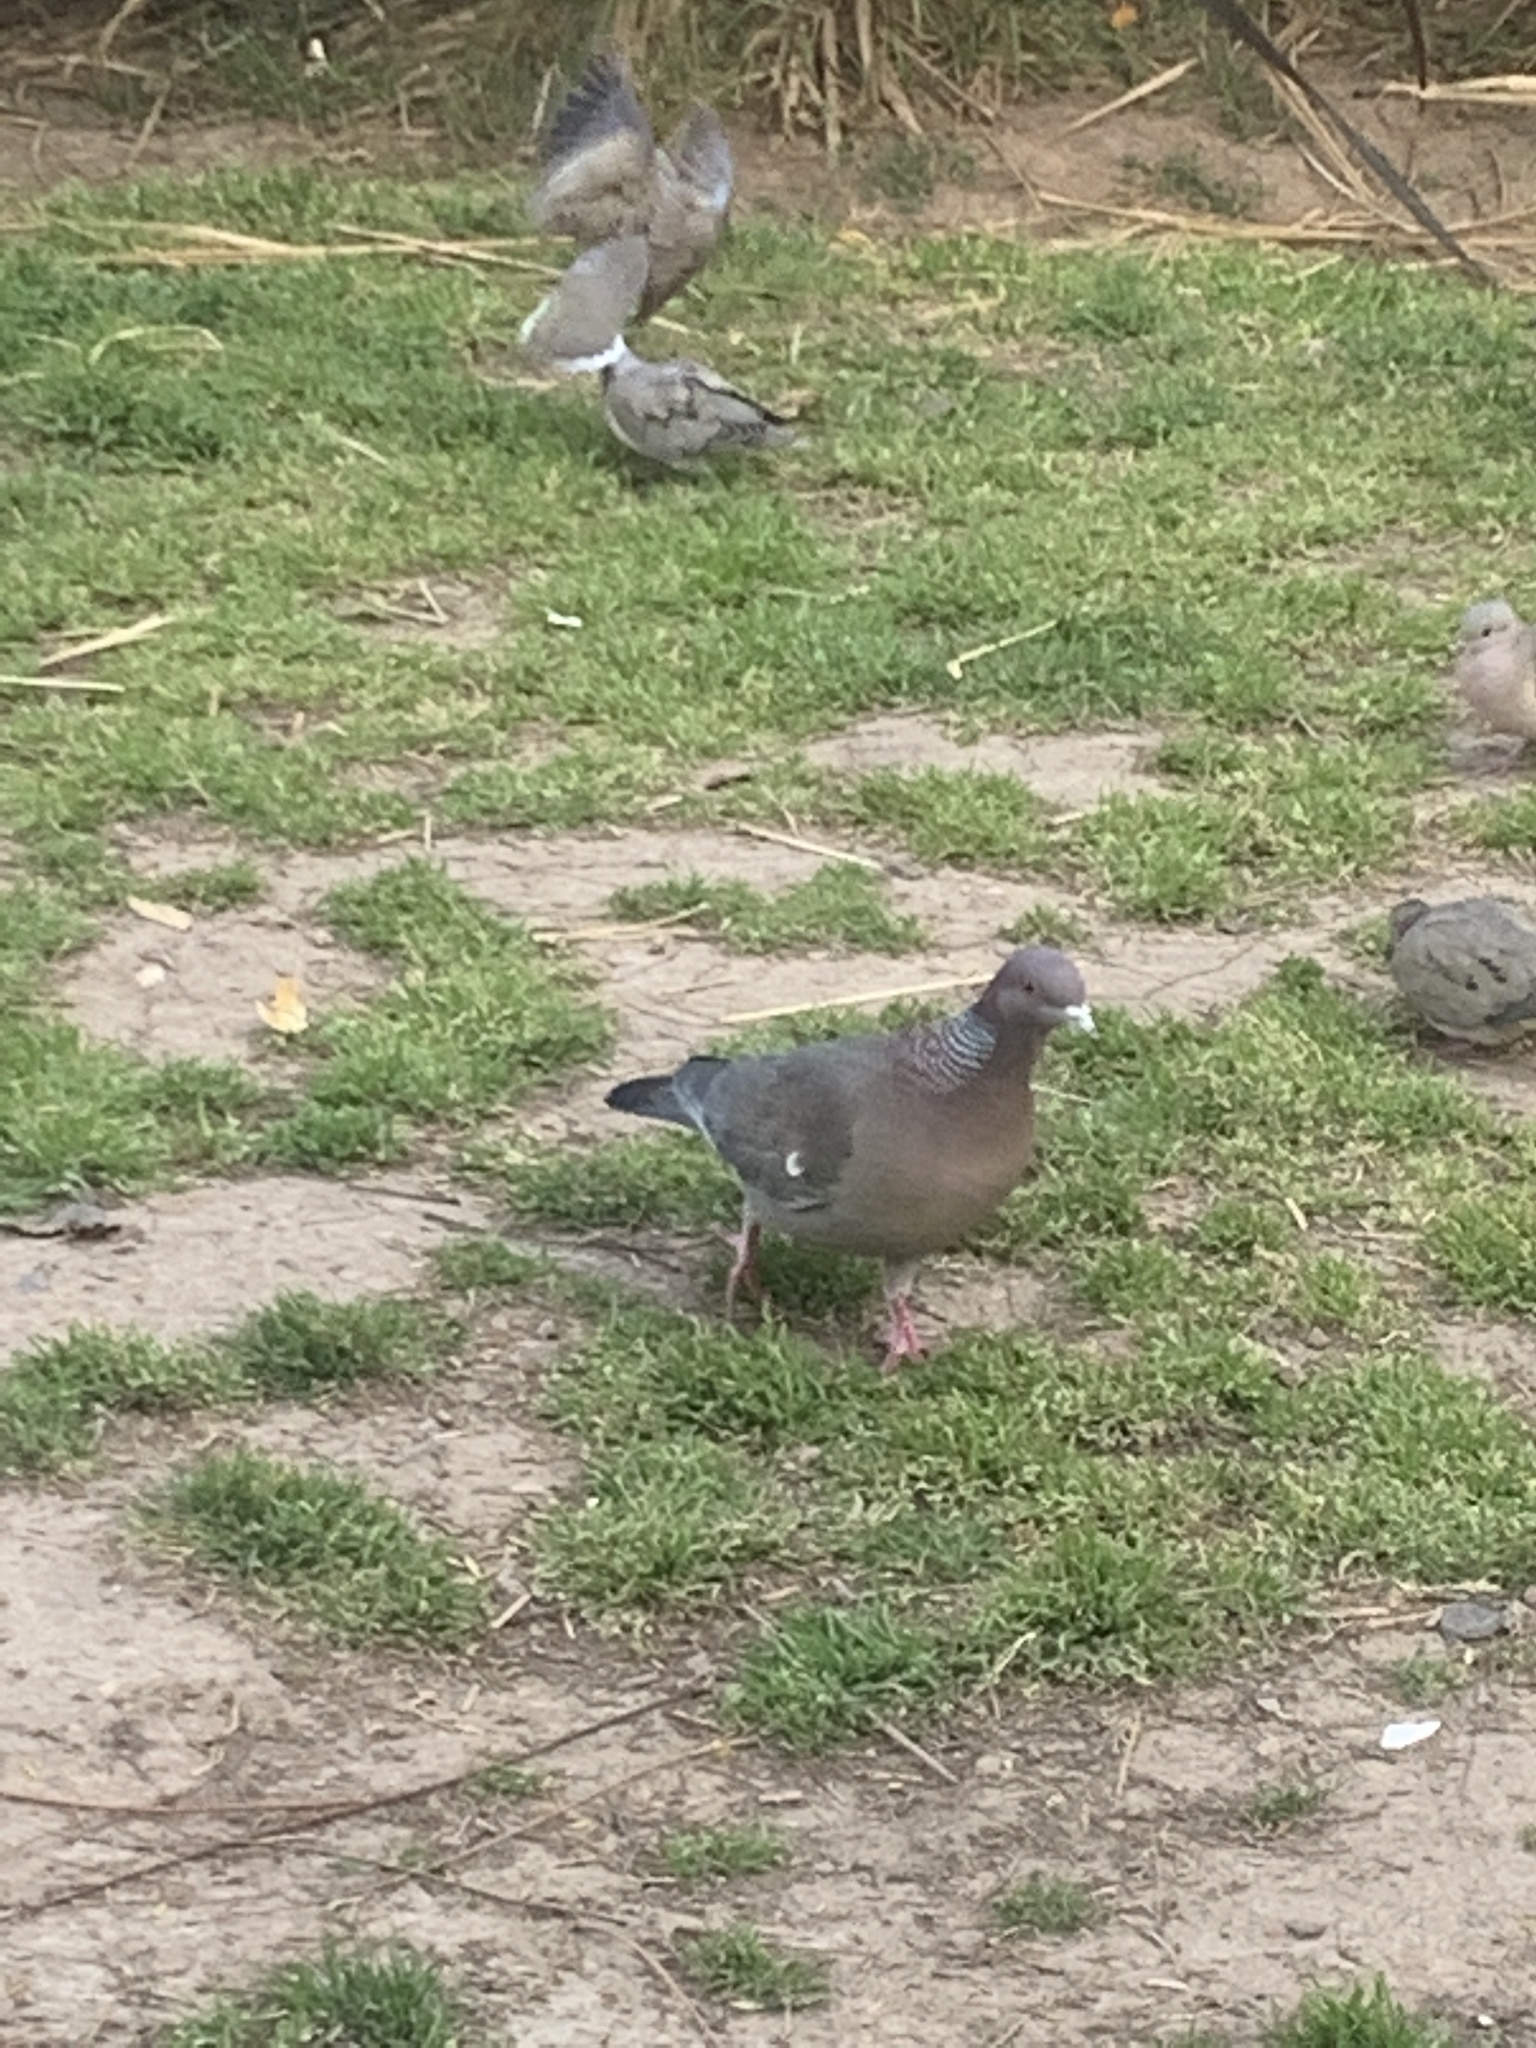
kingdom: Animalia
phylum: Chordata
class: Aves
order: Columbiformes
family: Columbidae
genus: Patagioenas
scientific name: Patagioenas picazuro
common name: Picazuro pigeon
